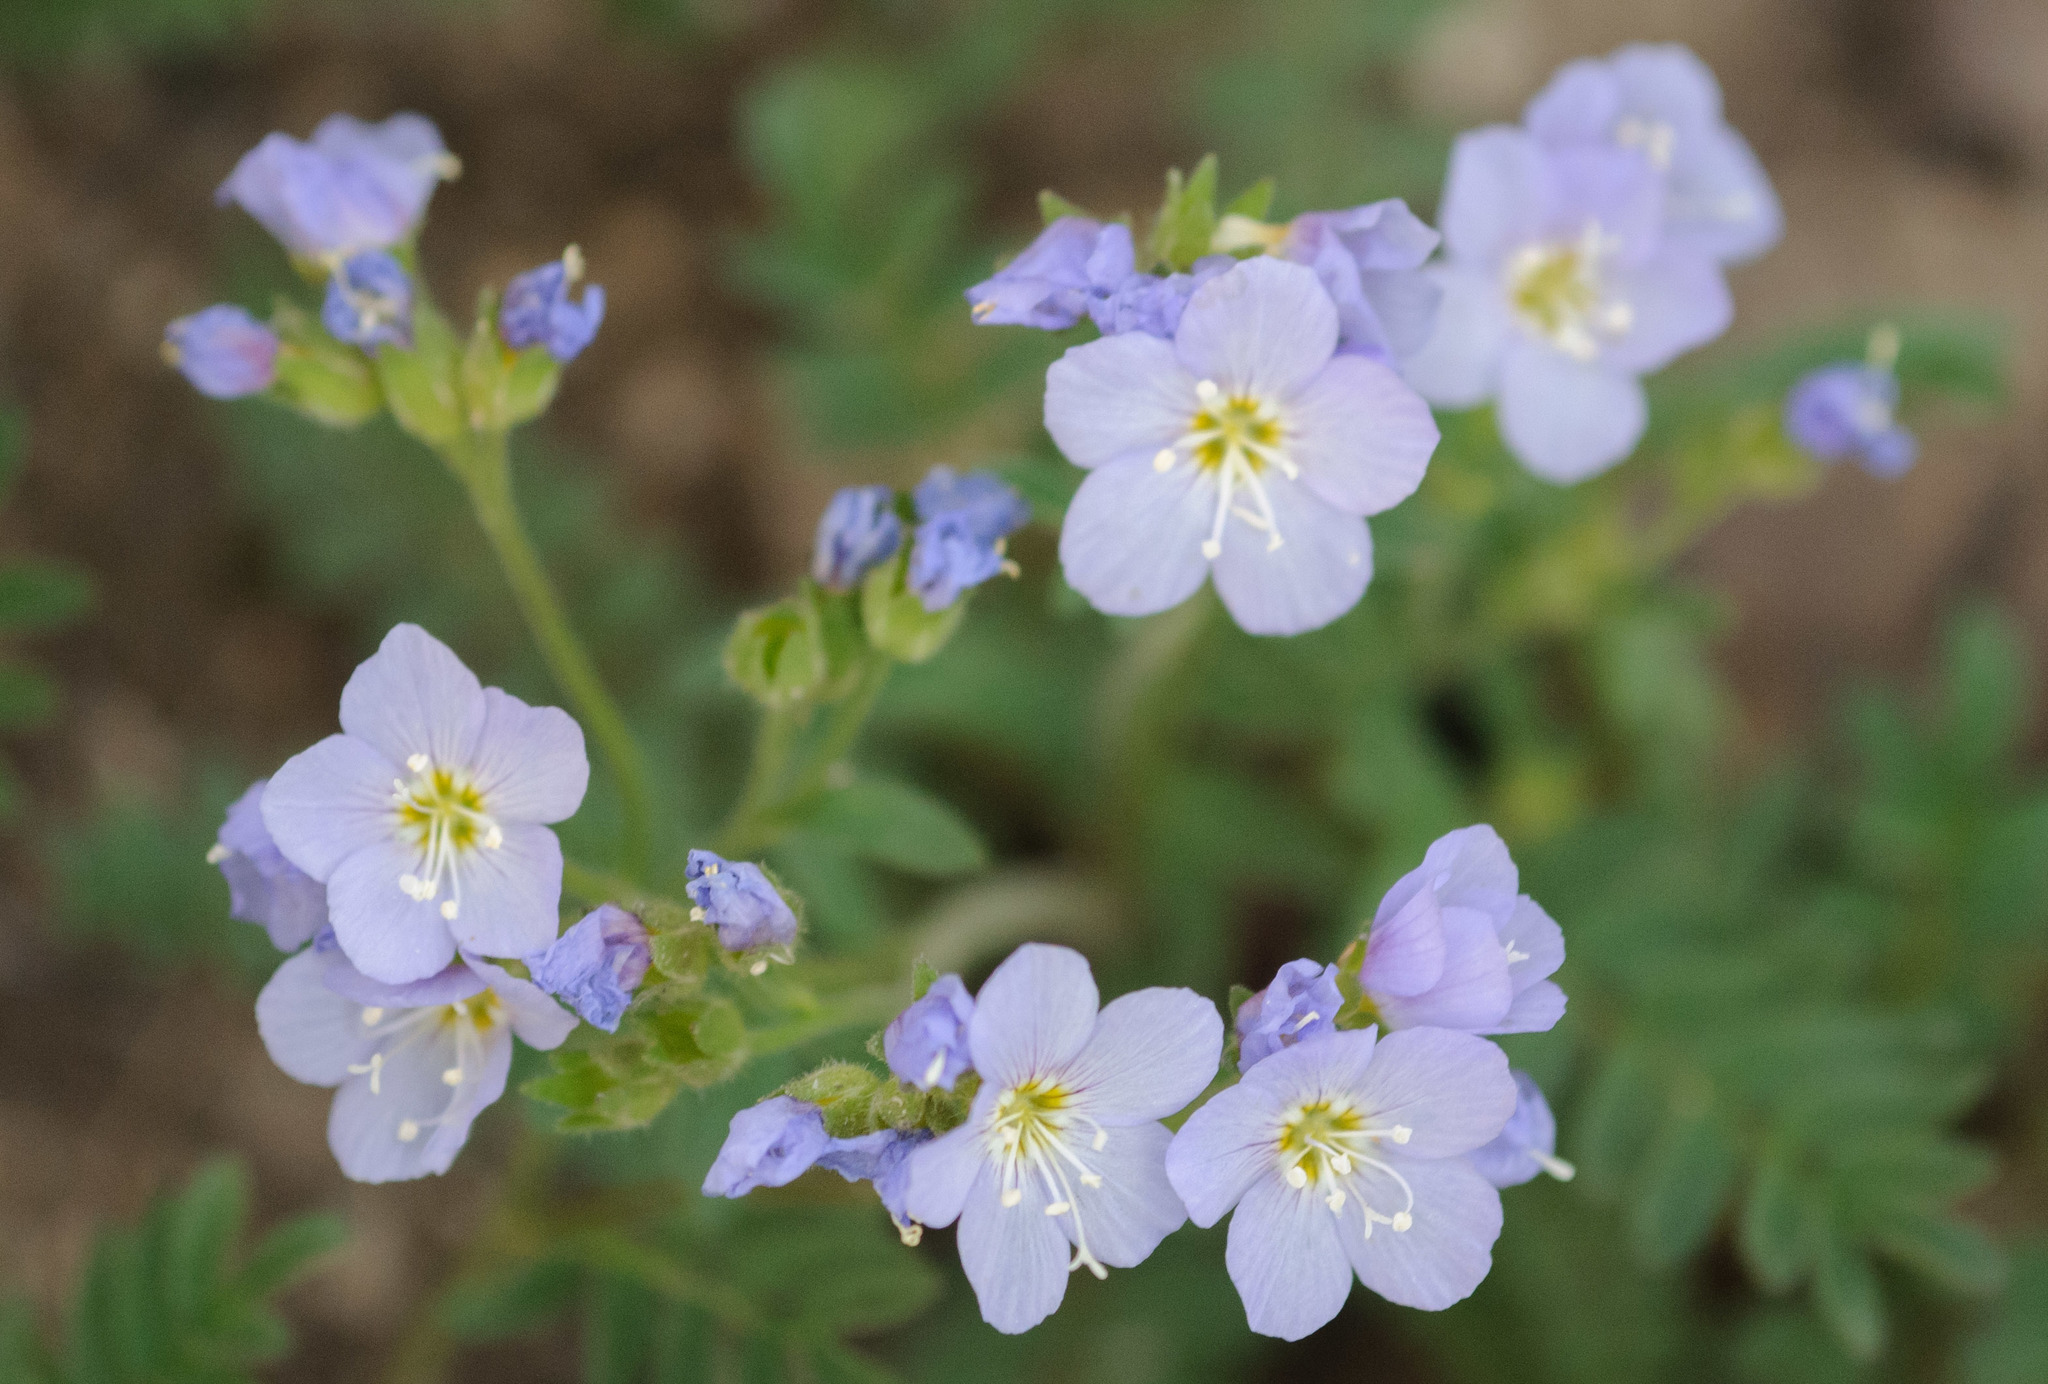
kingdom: Plantae
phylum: Tracheophyta
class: Magnoliopsida
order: Ericales
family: Polemoniaceae
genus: Polemonium
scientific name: Polemonium pulcherrimum
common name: Short jacob's-ladder
